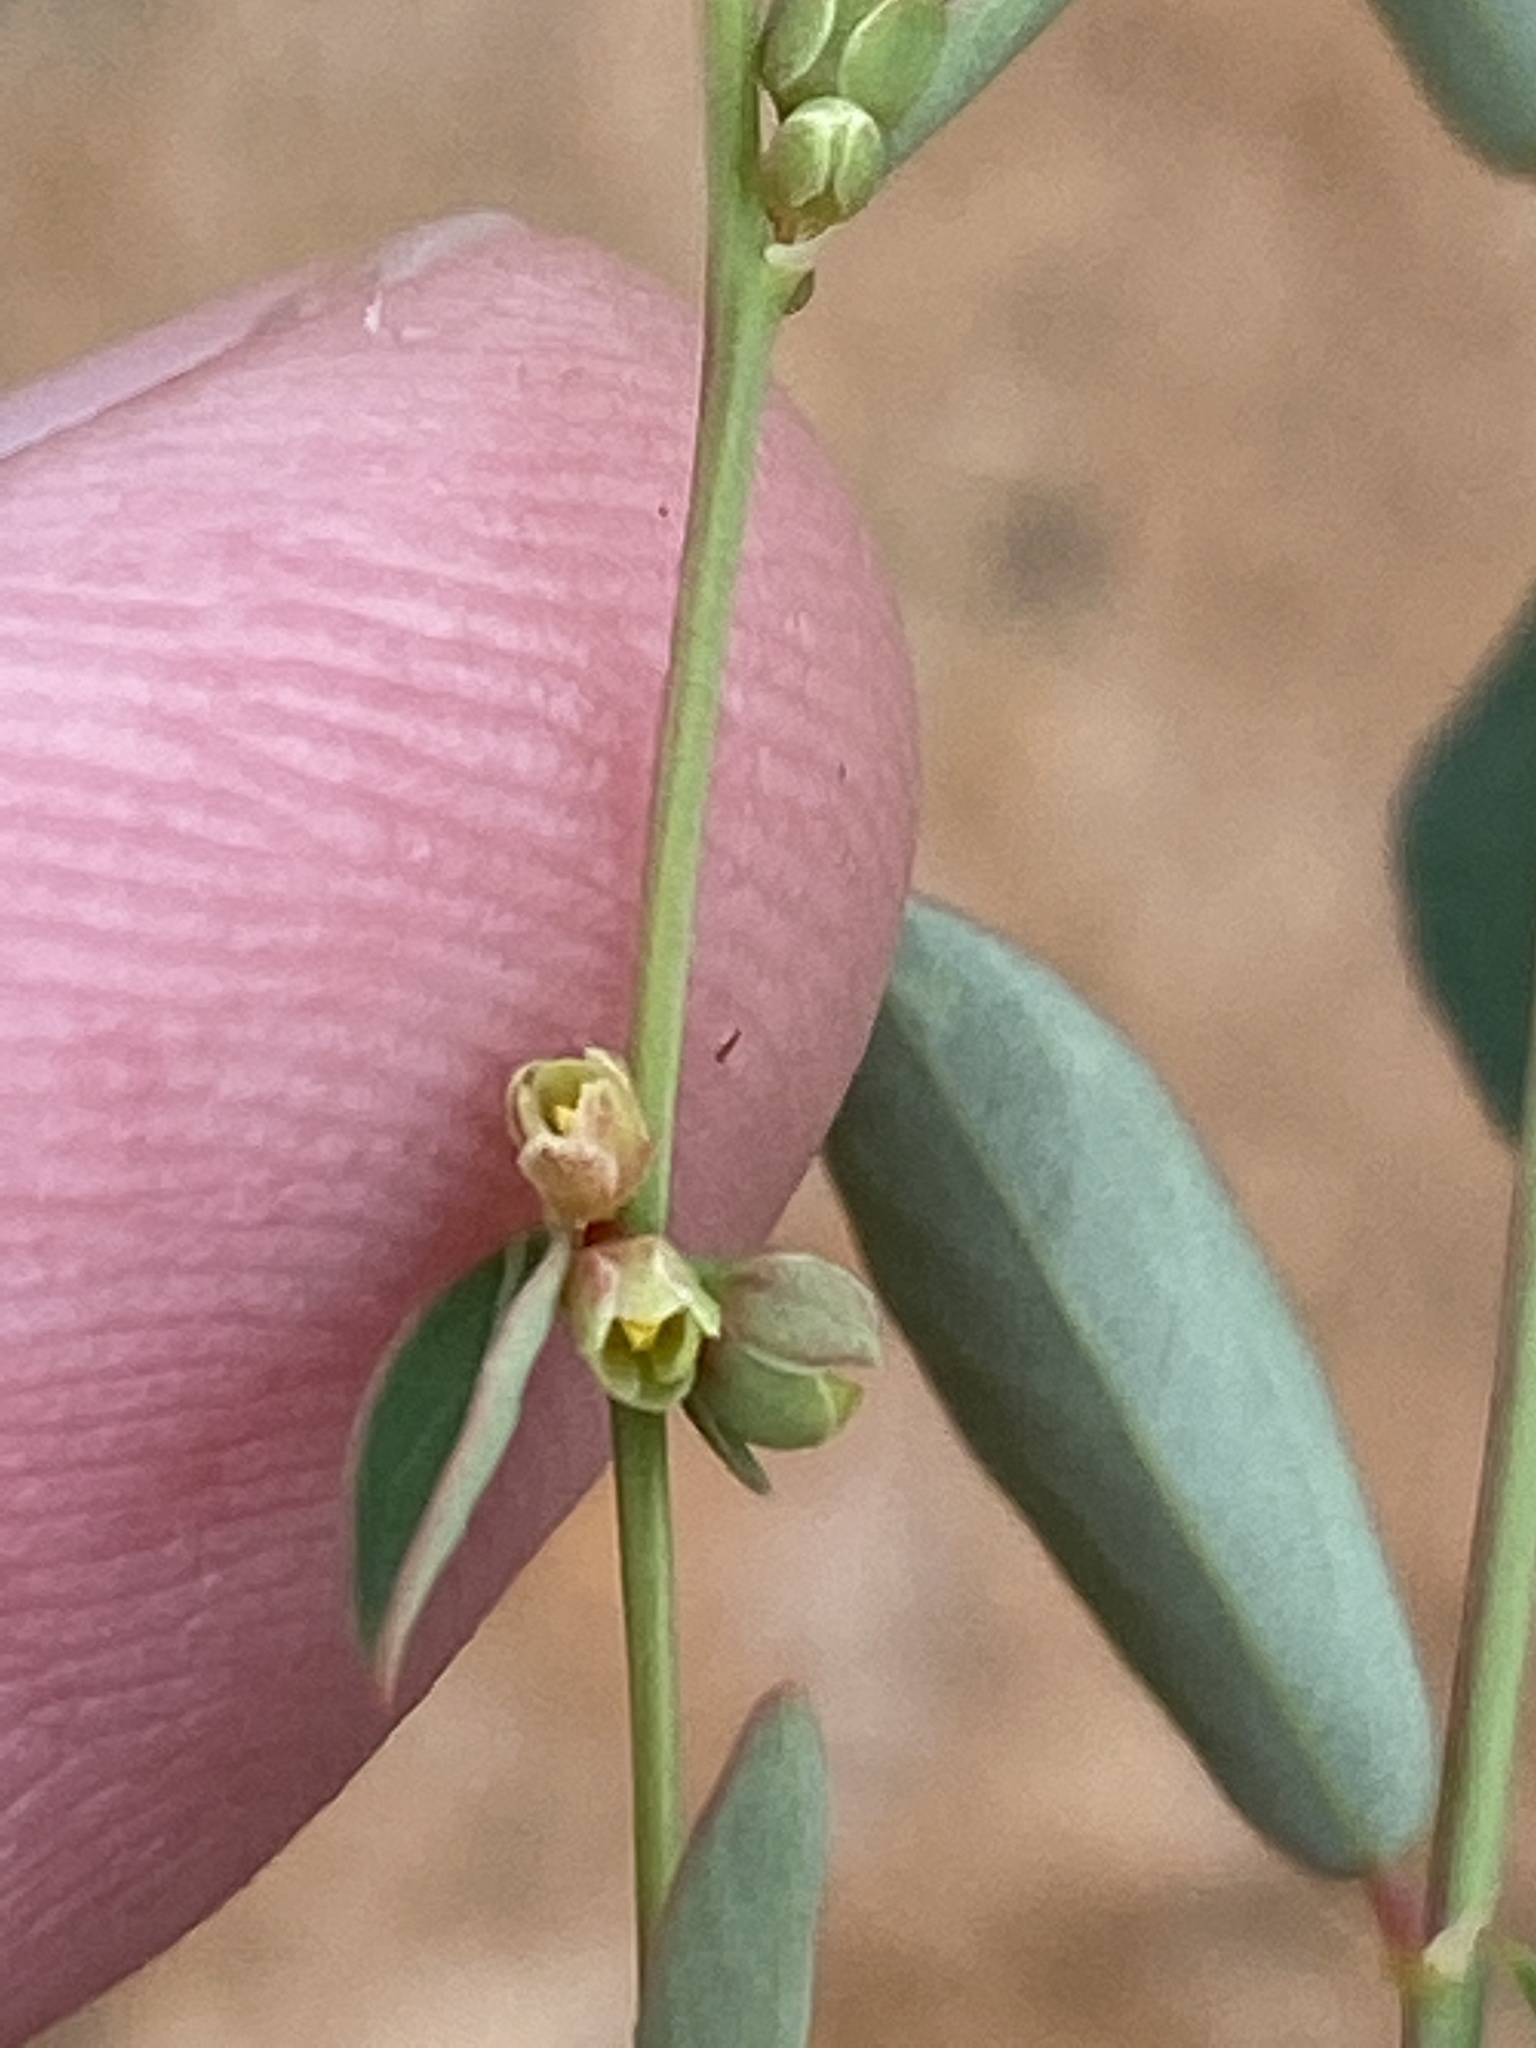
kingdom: Plantae
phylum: Tracheophyta
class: Magnoliopsida
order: Malpighiales
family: Phyllanthaceae
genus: Phyllanthus
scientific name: Phyllanthus maderaspatensis
